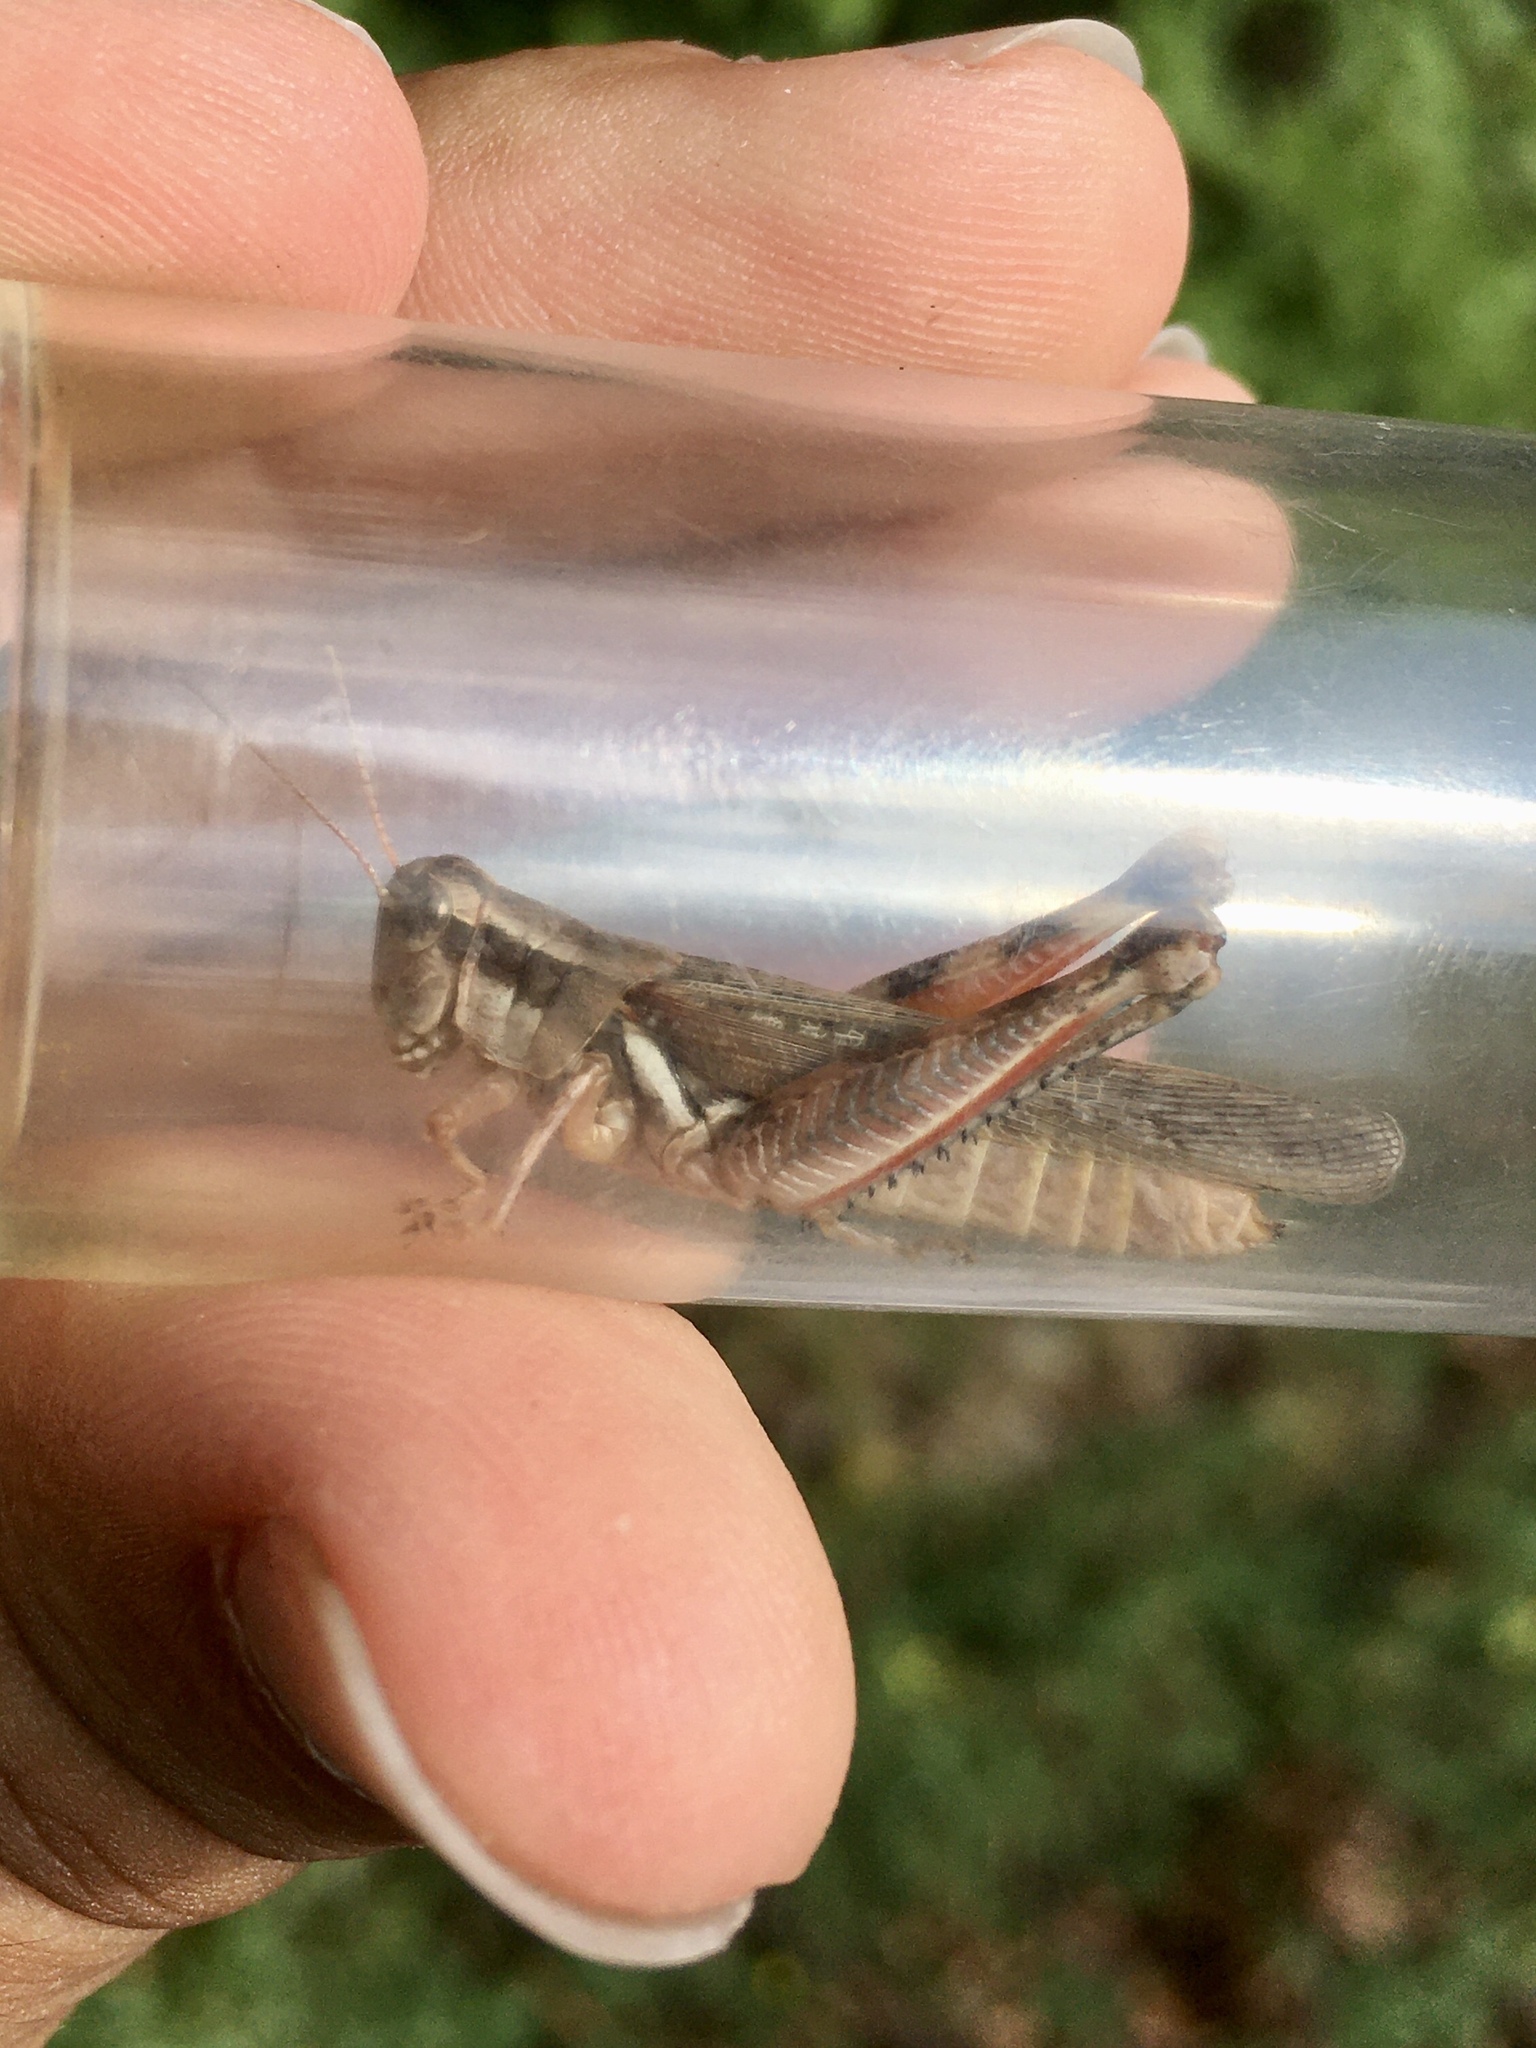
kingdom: Animalia
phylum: Arthropoda
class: Insecta
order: Orthoptera
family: Acrididae
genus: Melanoplus
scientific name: Melanoplus foedus
